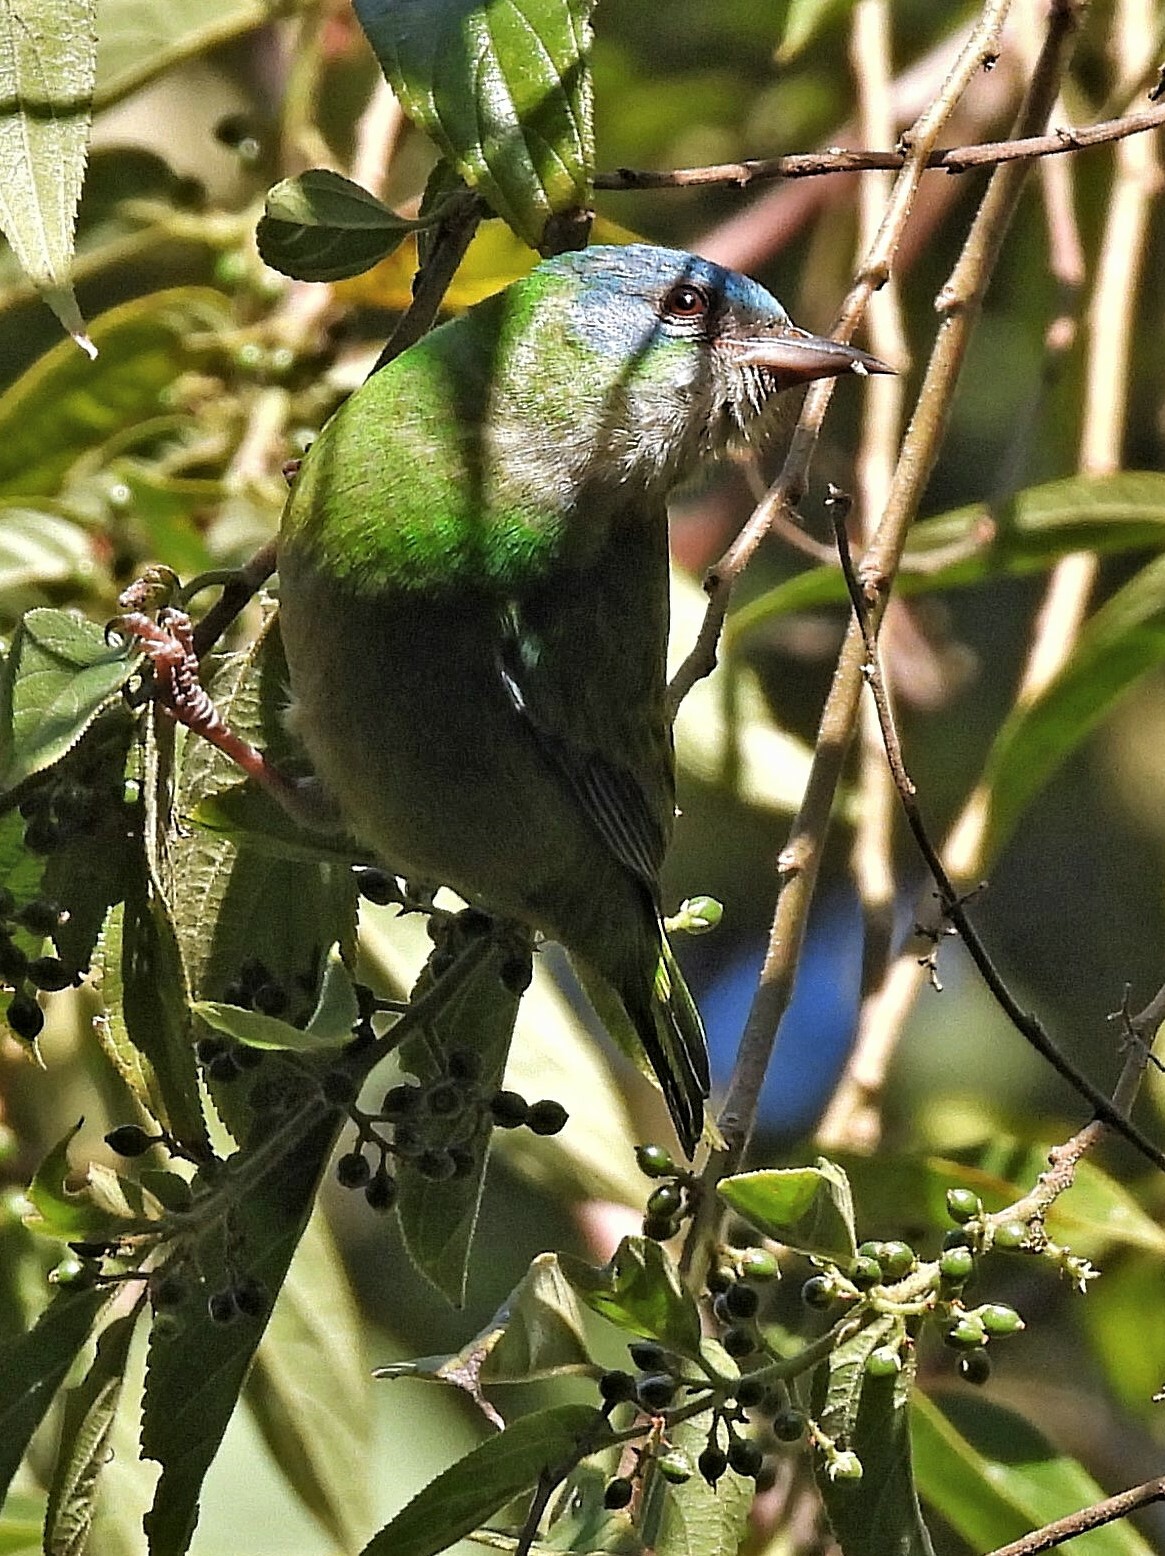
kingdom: Animalia
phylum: Chordata
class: Aves
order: Passeriformes
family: Thraupidae
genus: Dacnis
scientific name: Dacnis cayana
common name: Blue dacnis
